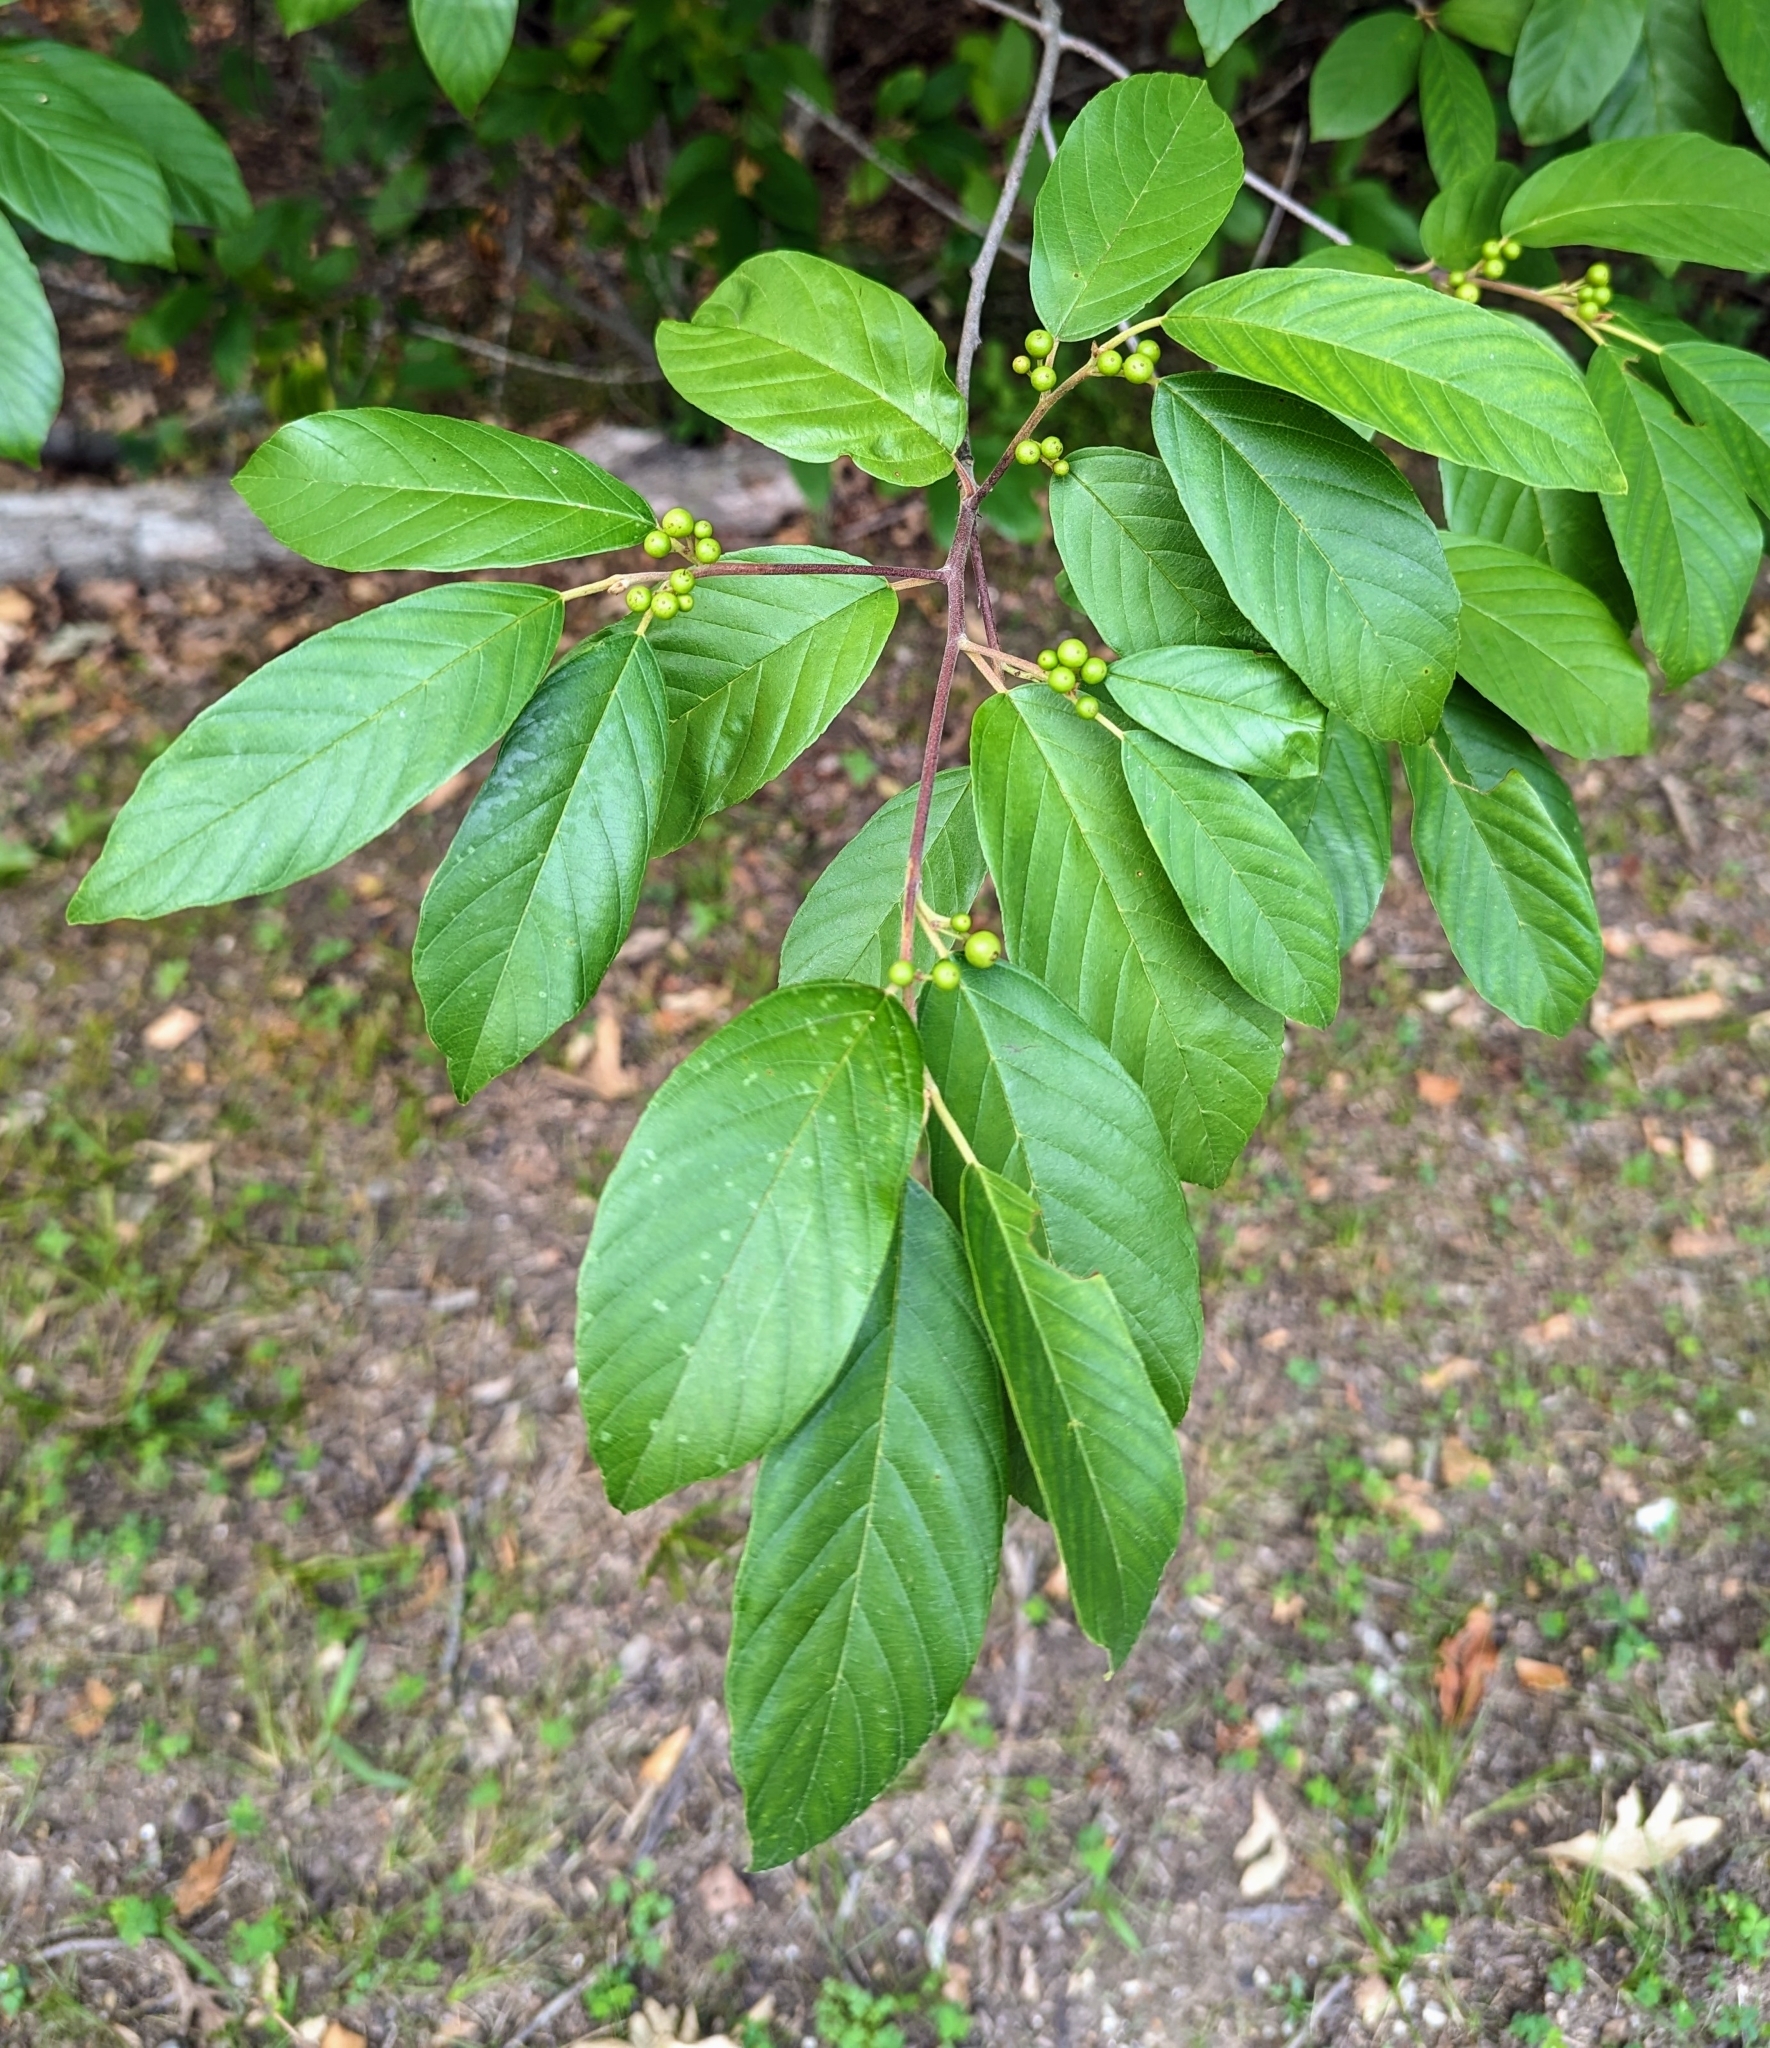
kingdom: Plantae
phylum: Tracheophyta
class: Magnoliopsida
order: Rosales
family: Rhamnaceae
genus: Frangula
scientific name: Frangula caroliniana
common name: Carolina buckthorn
